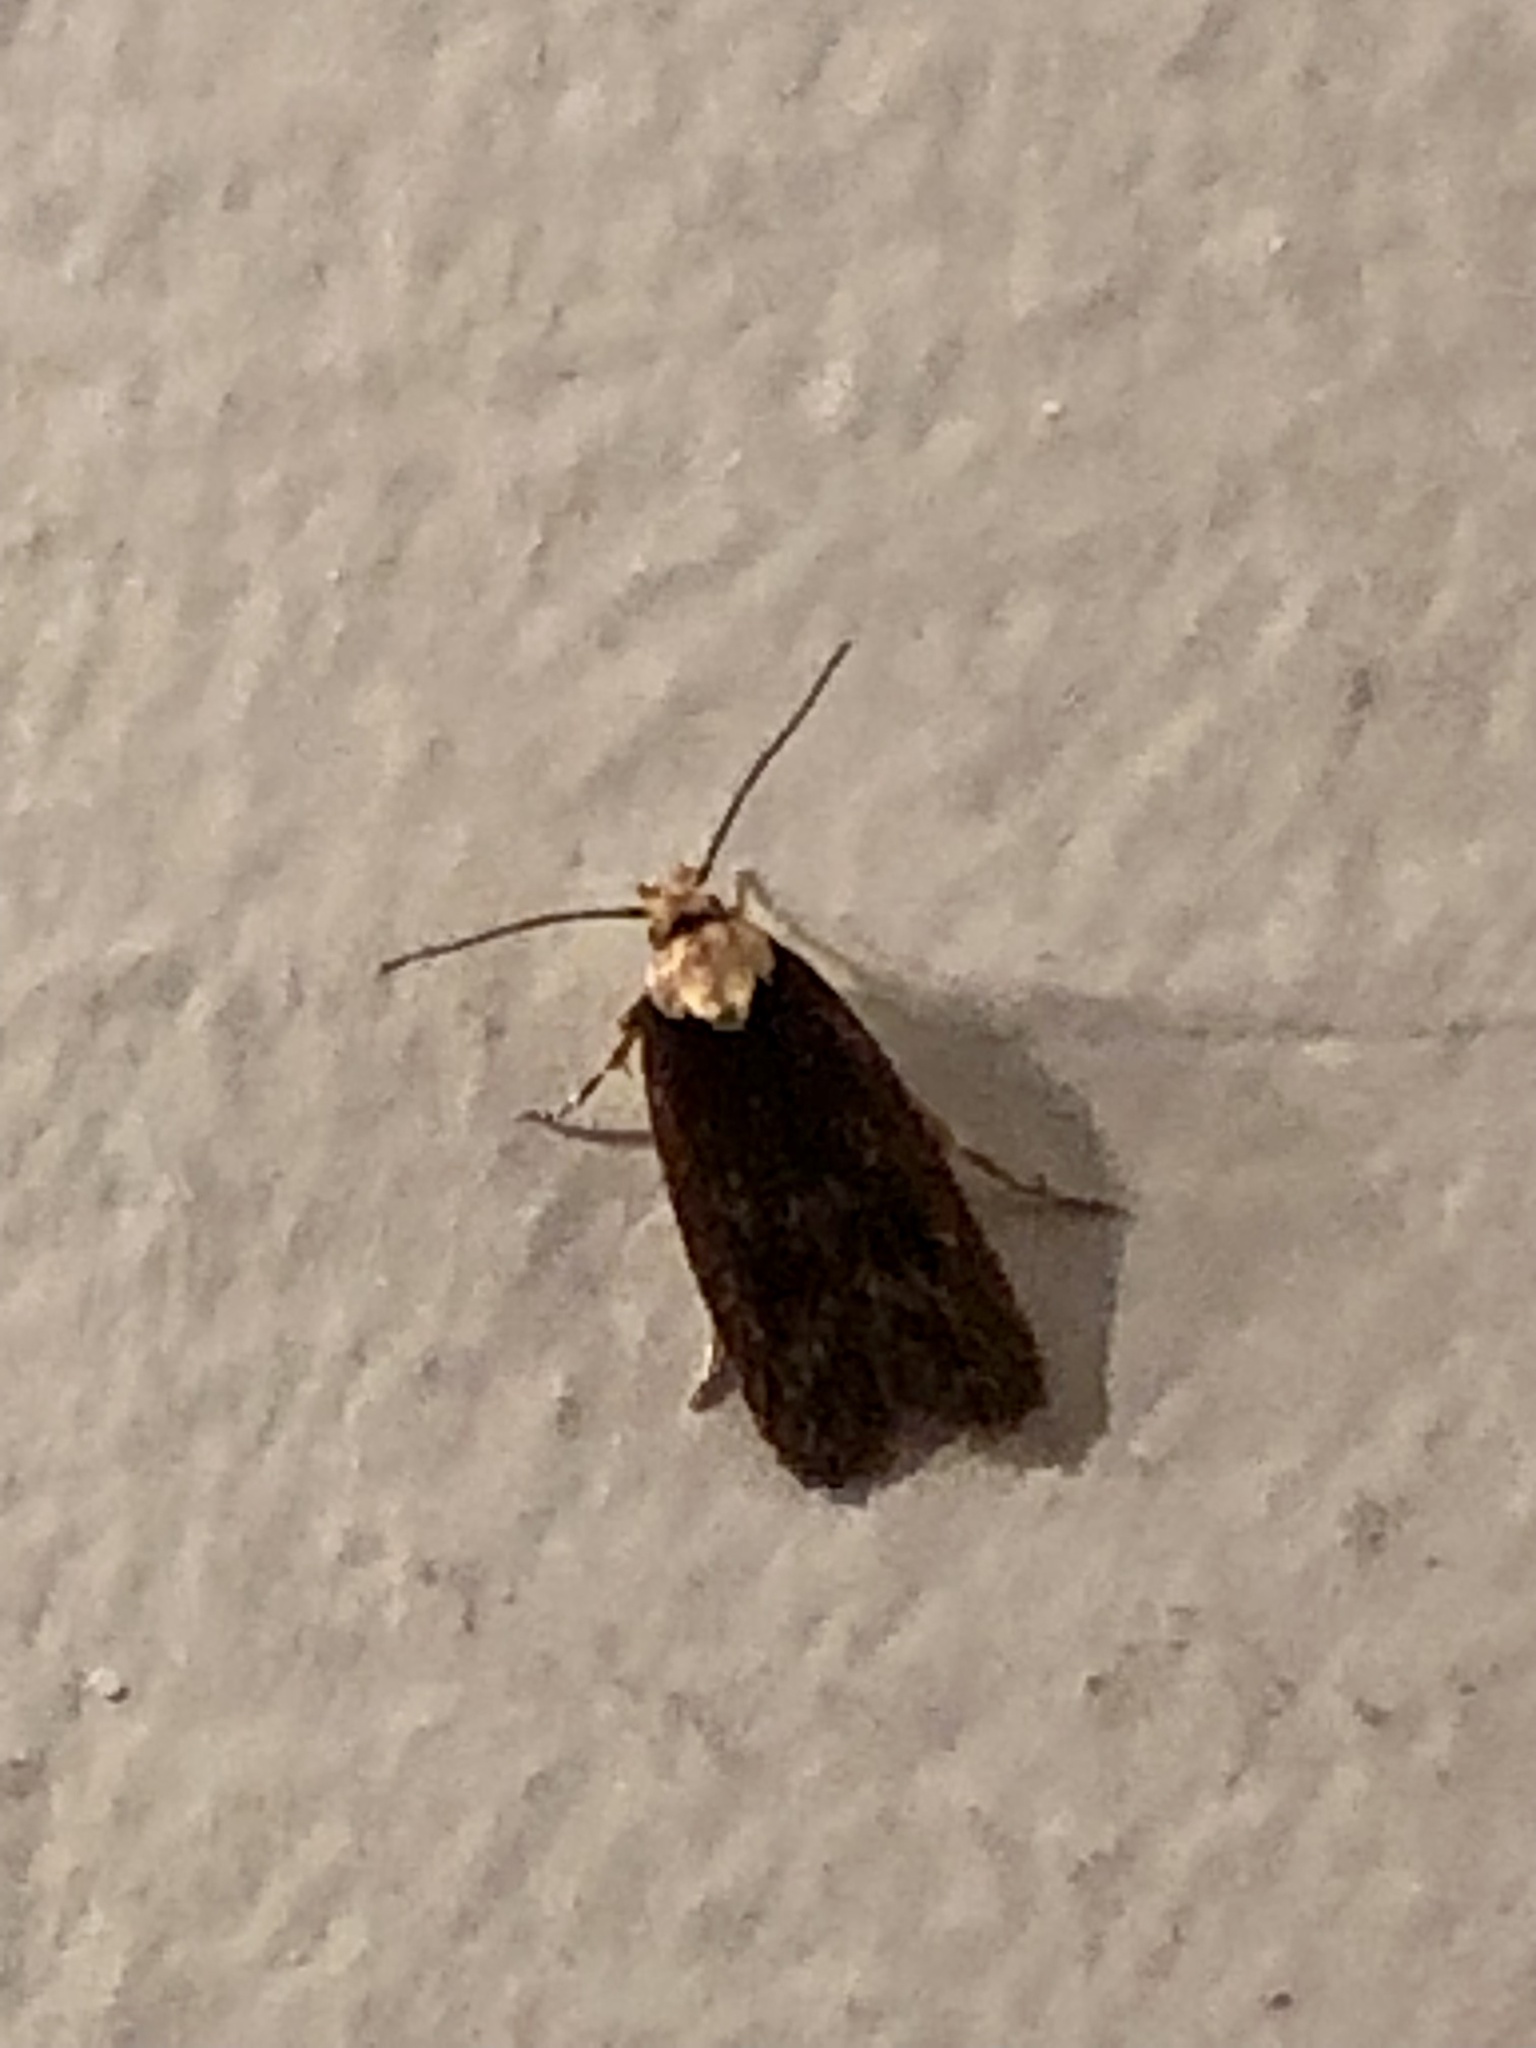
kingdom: Animalia
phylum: Arthropoda
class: Insecta
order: Lepidoptera
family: Depressariidae
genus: Depressaria
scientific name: Depressaria depressana
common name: Lost flat-body
